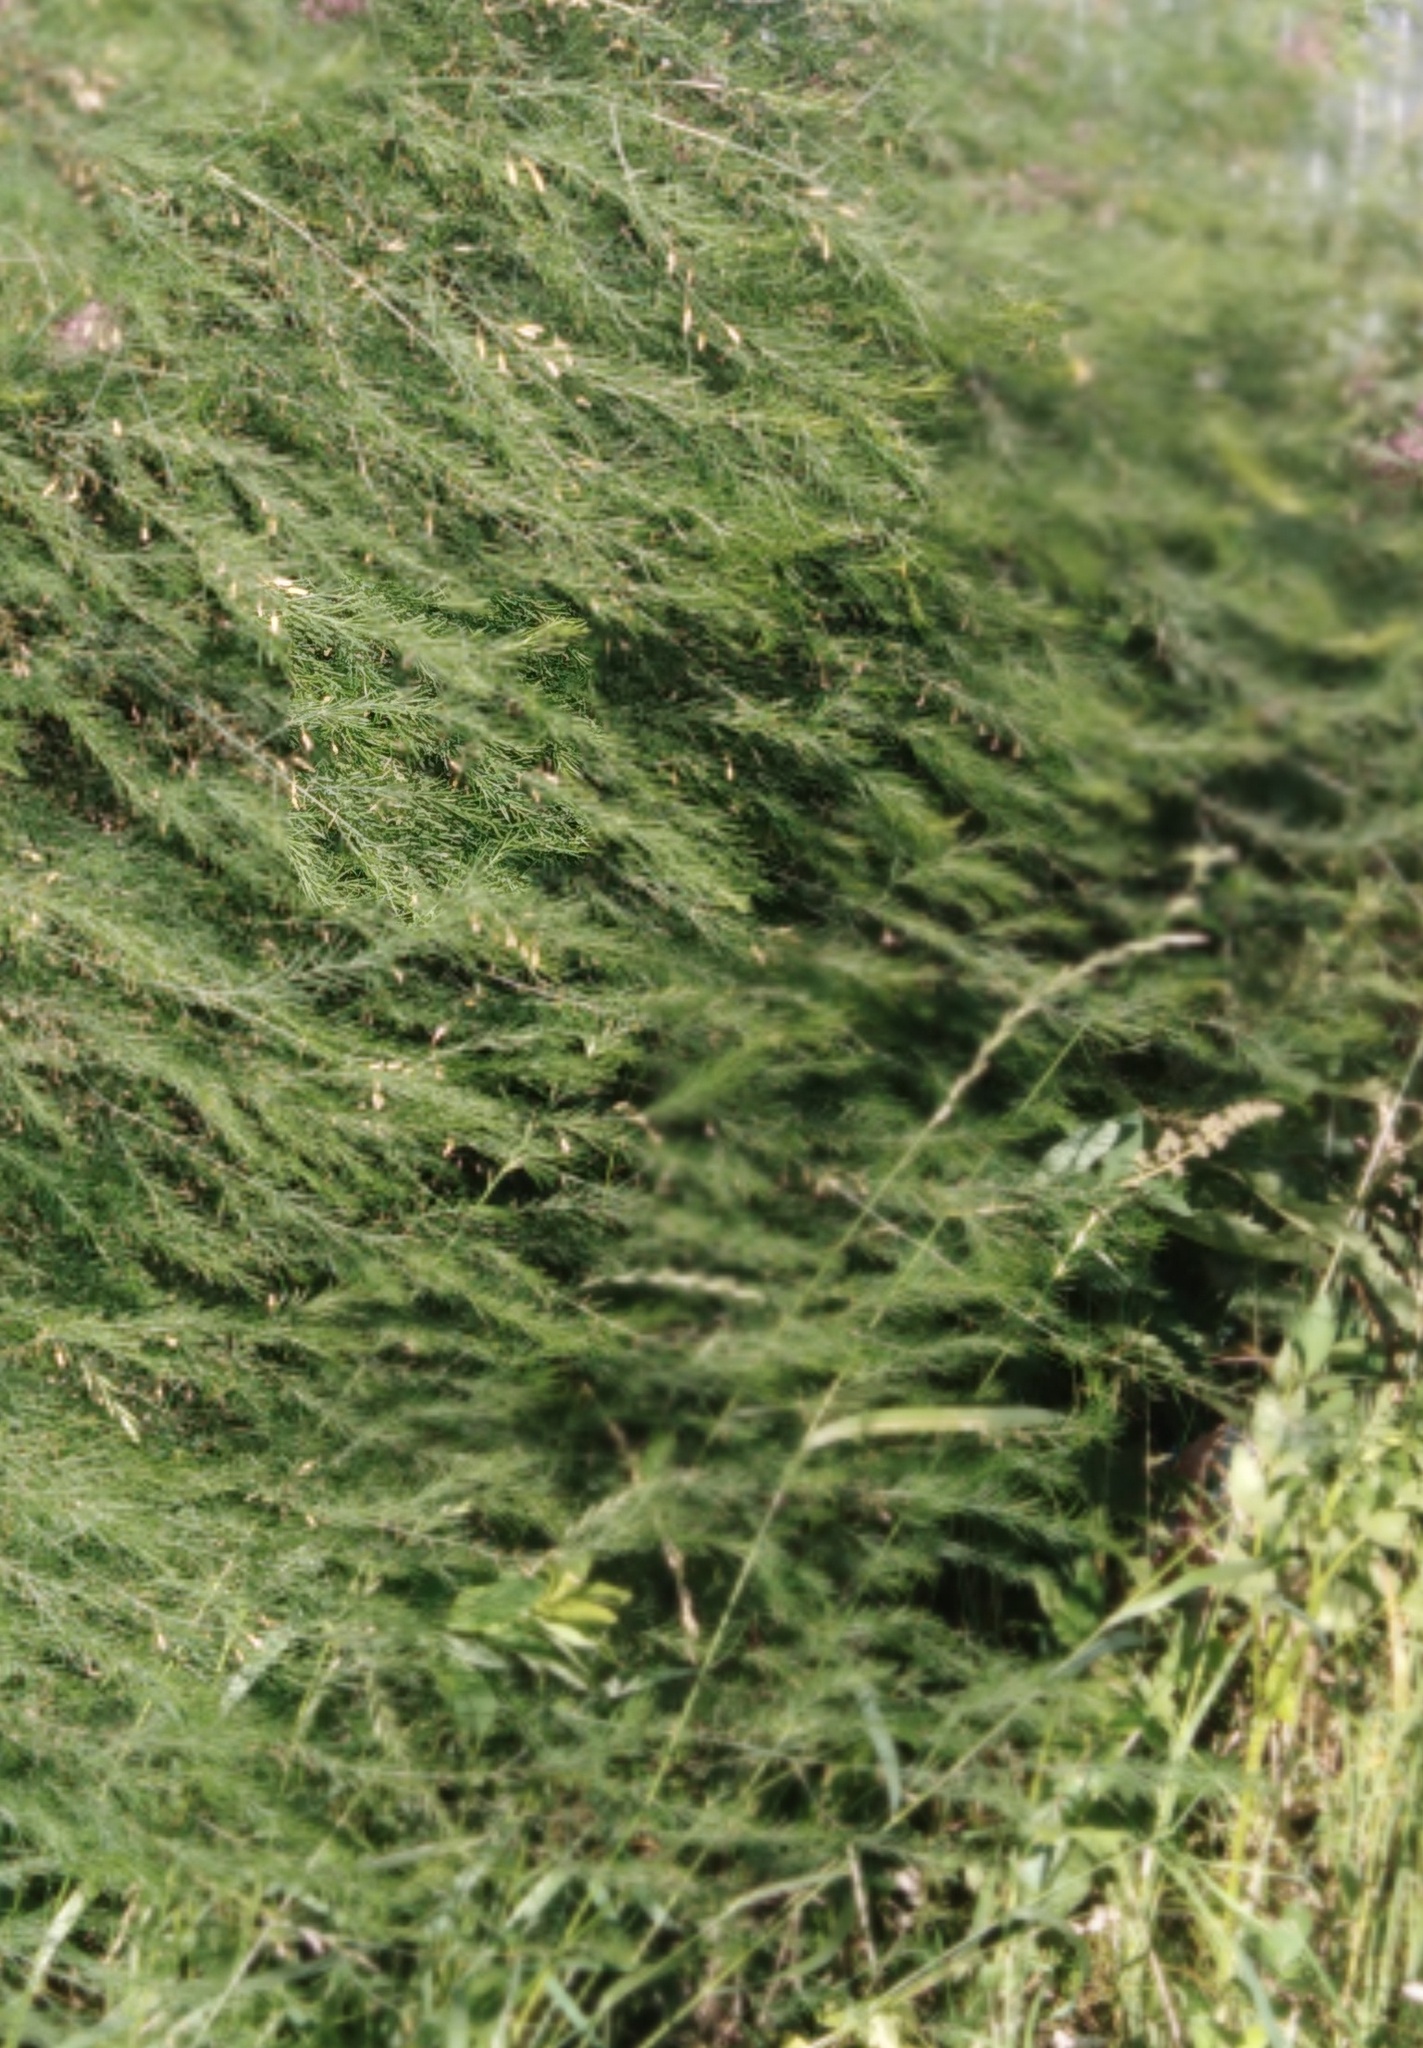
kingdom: Plantae
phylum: Tracheophyta
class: Liliopsida
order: Asparagales
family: Asparagaceae
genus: Asparagus
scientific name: Asparagus officinalis
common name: Garden asparagus
